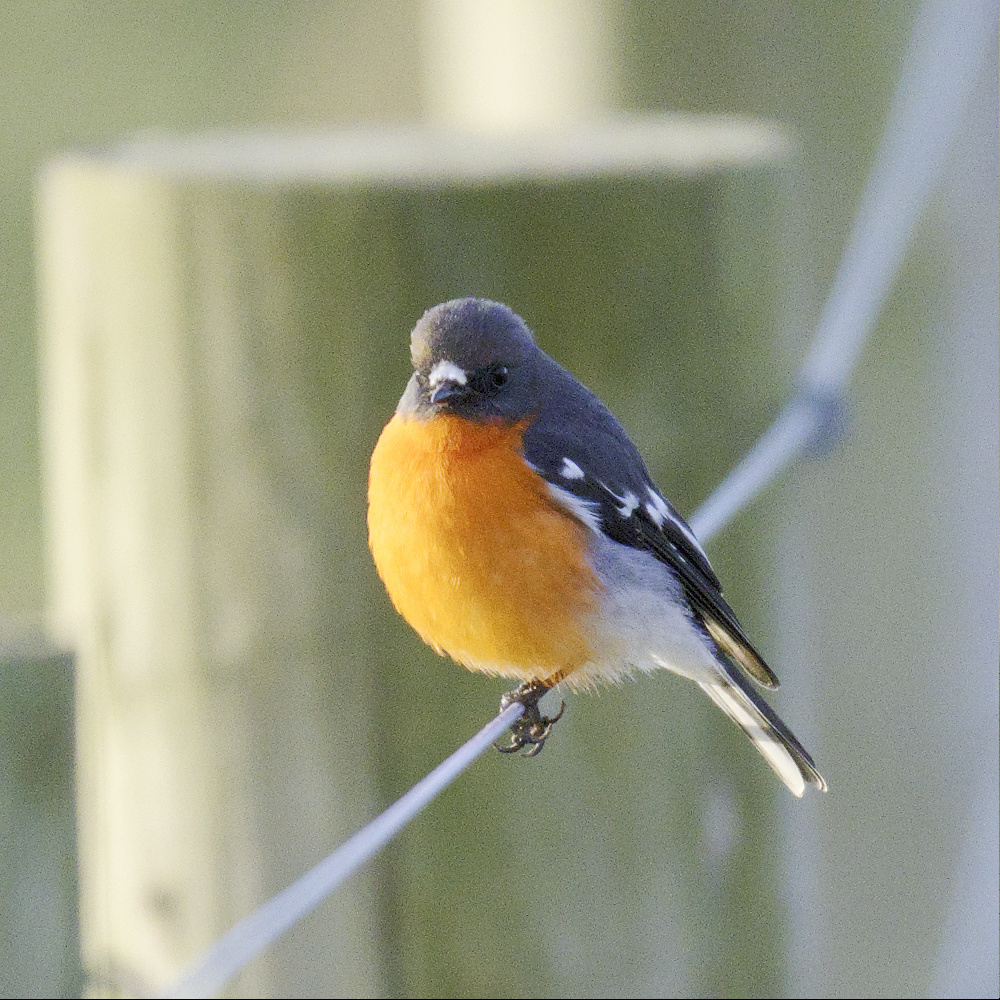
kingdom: Animalia
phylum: Chordata
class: Aves
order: Passeriformes
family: Petroicidae
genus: Petroica
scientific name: Petroica phoenicea
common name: Flame robin
